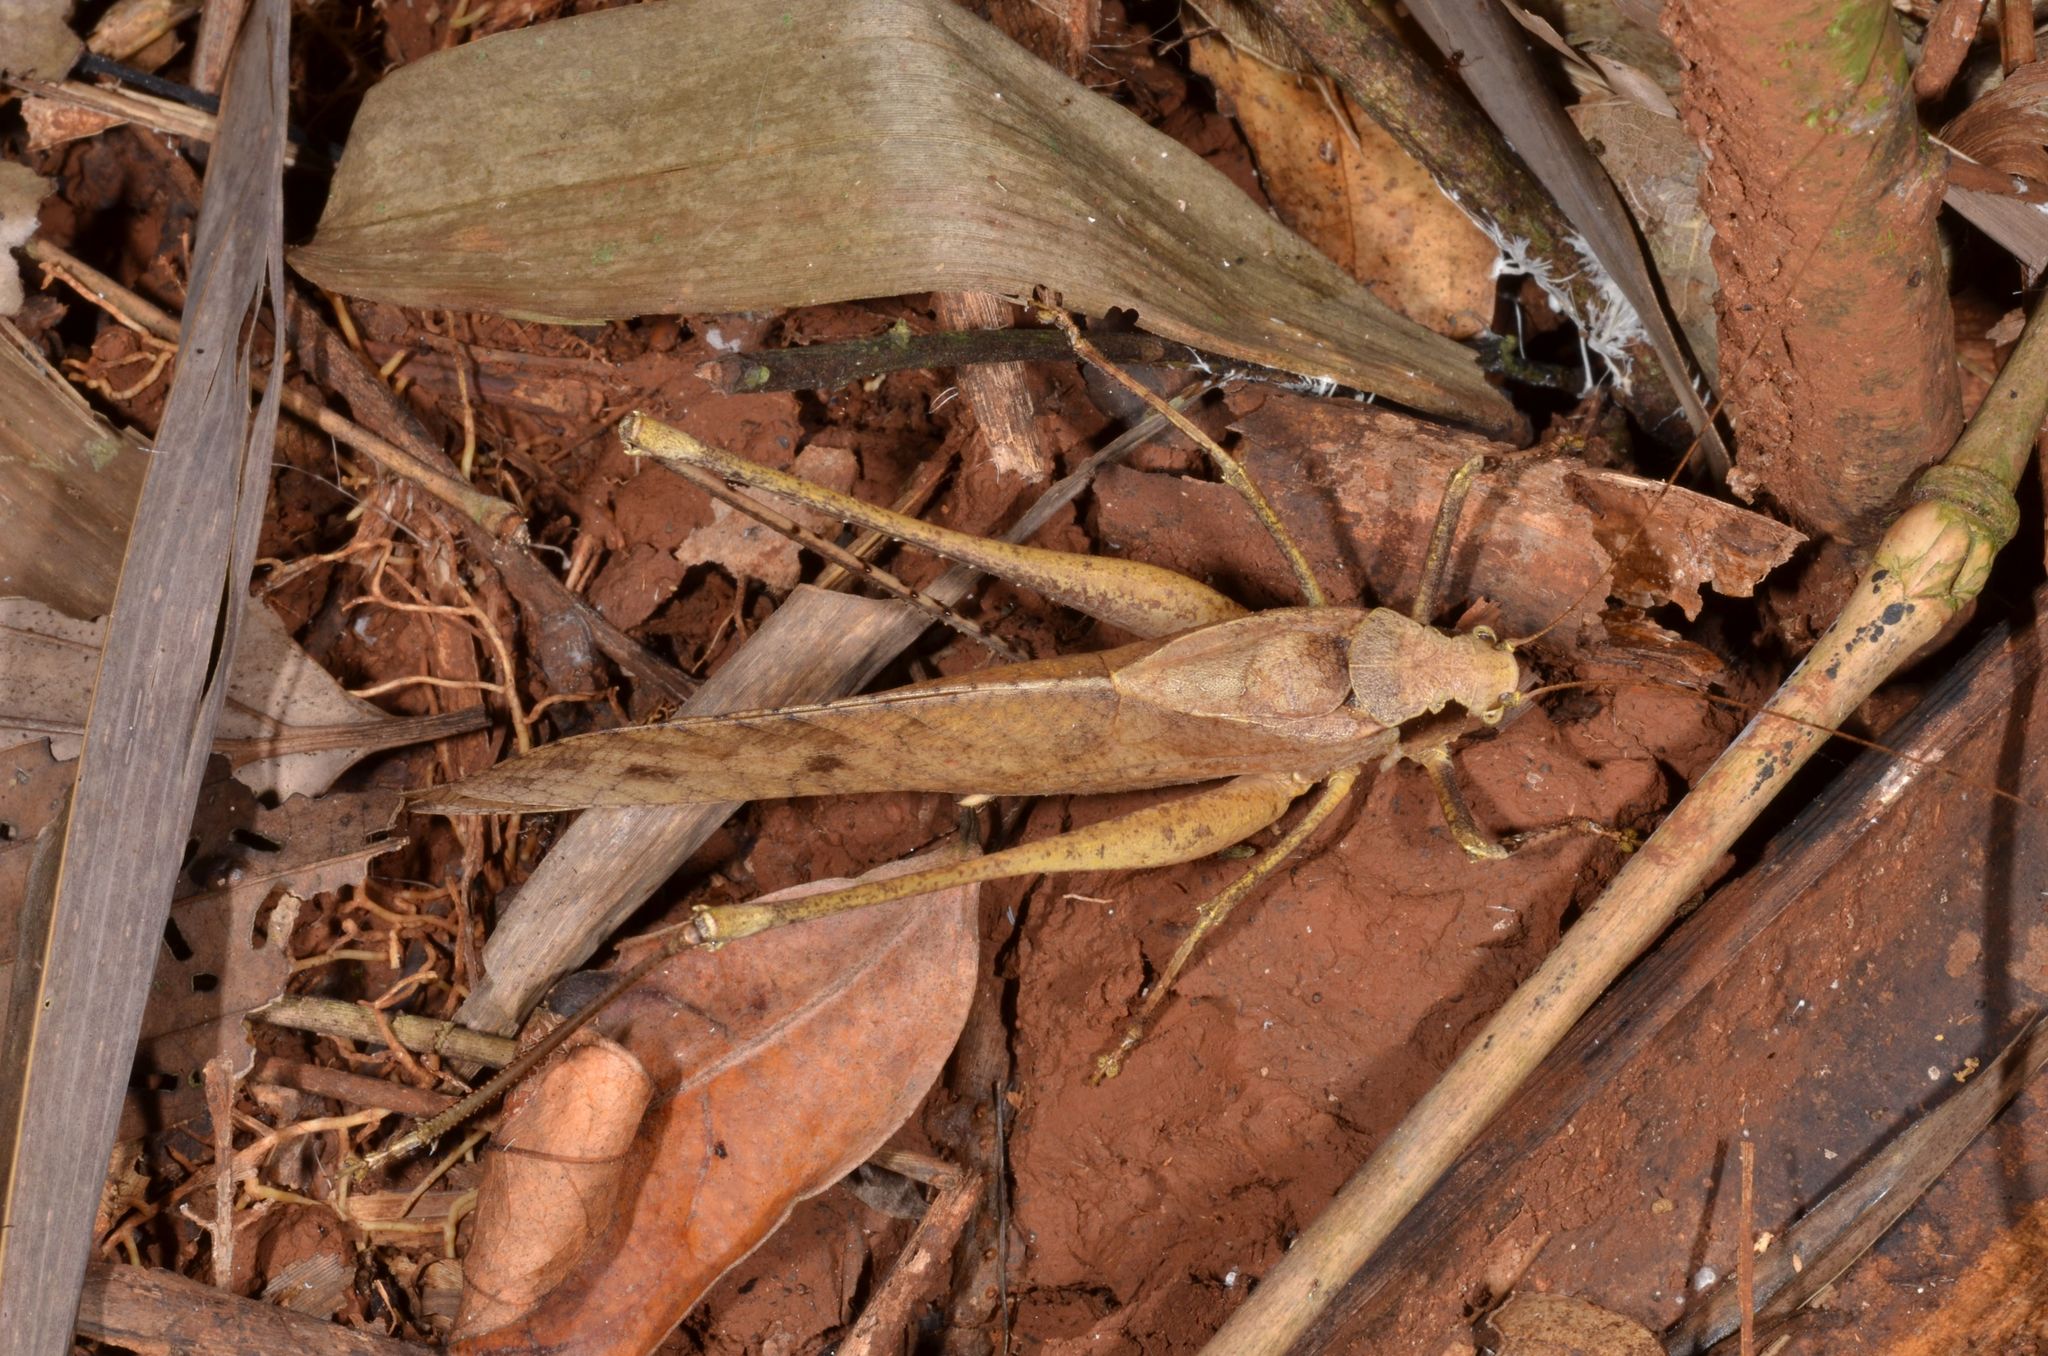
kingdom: Animalia
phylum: Arthropoda
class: Insecta
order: Orthoptera
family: Tettigoniidae
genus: Mecopoda
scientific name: Mecopoda elongata
